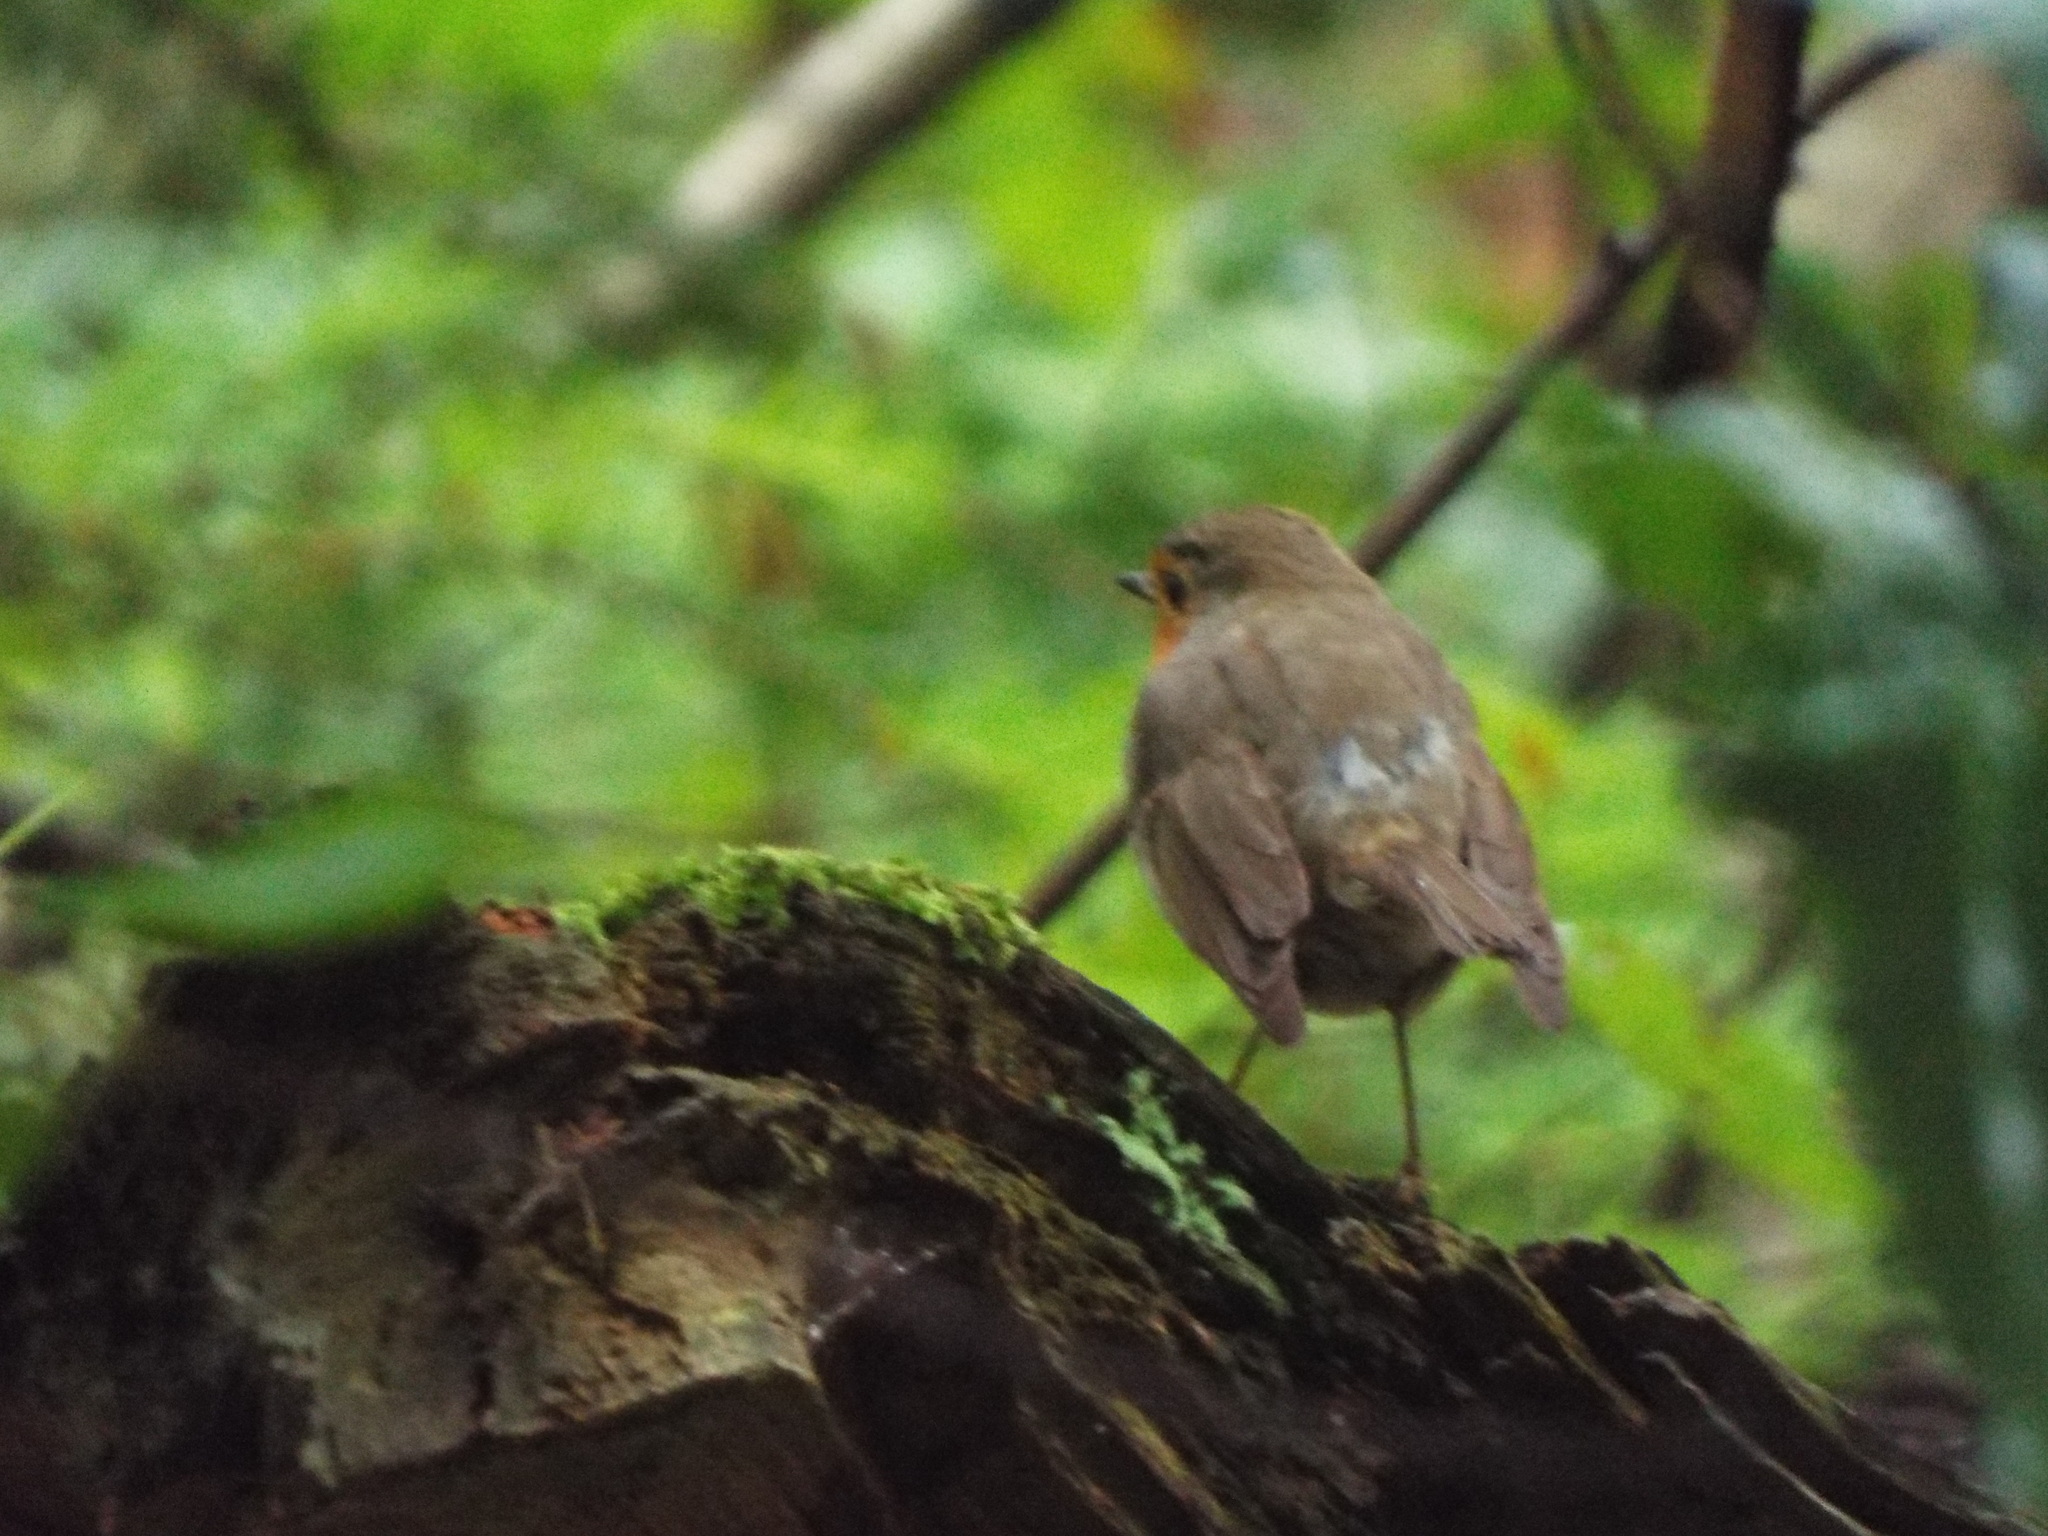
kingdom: Animalia
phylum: Chordata
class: Aves
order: Passeriformes
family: Muscicapidae
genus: Erithacus
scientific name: Erithacus rubecula
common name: European robin
